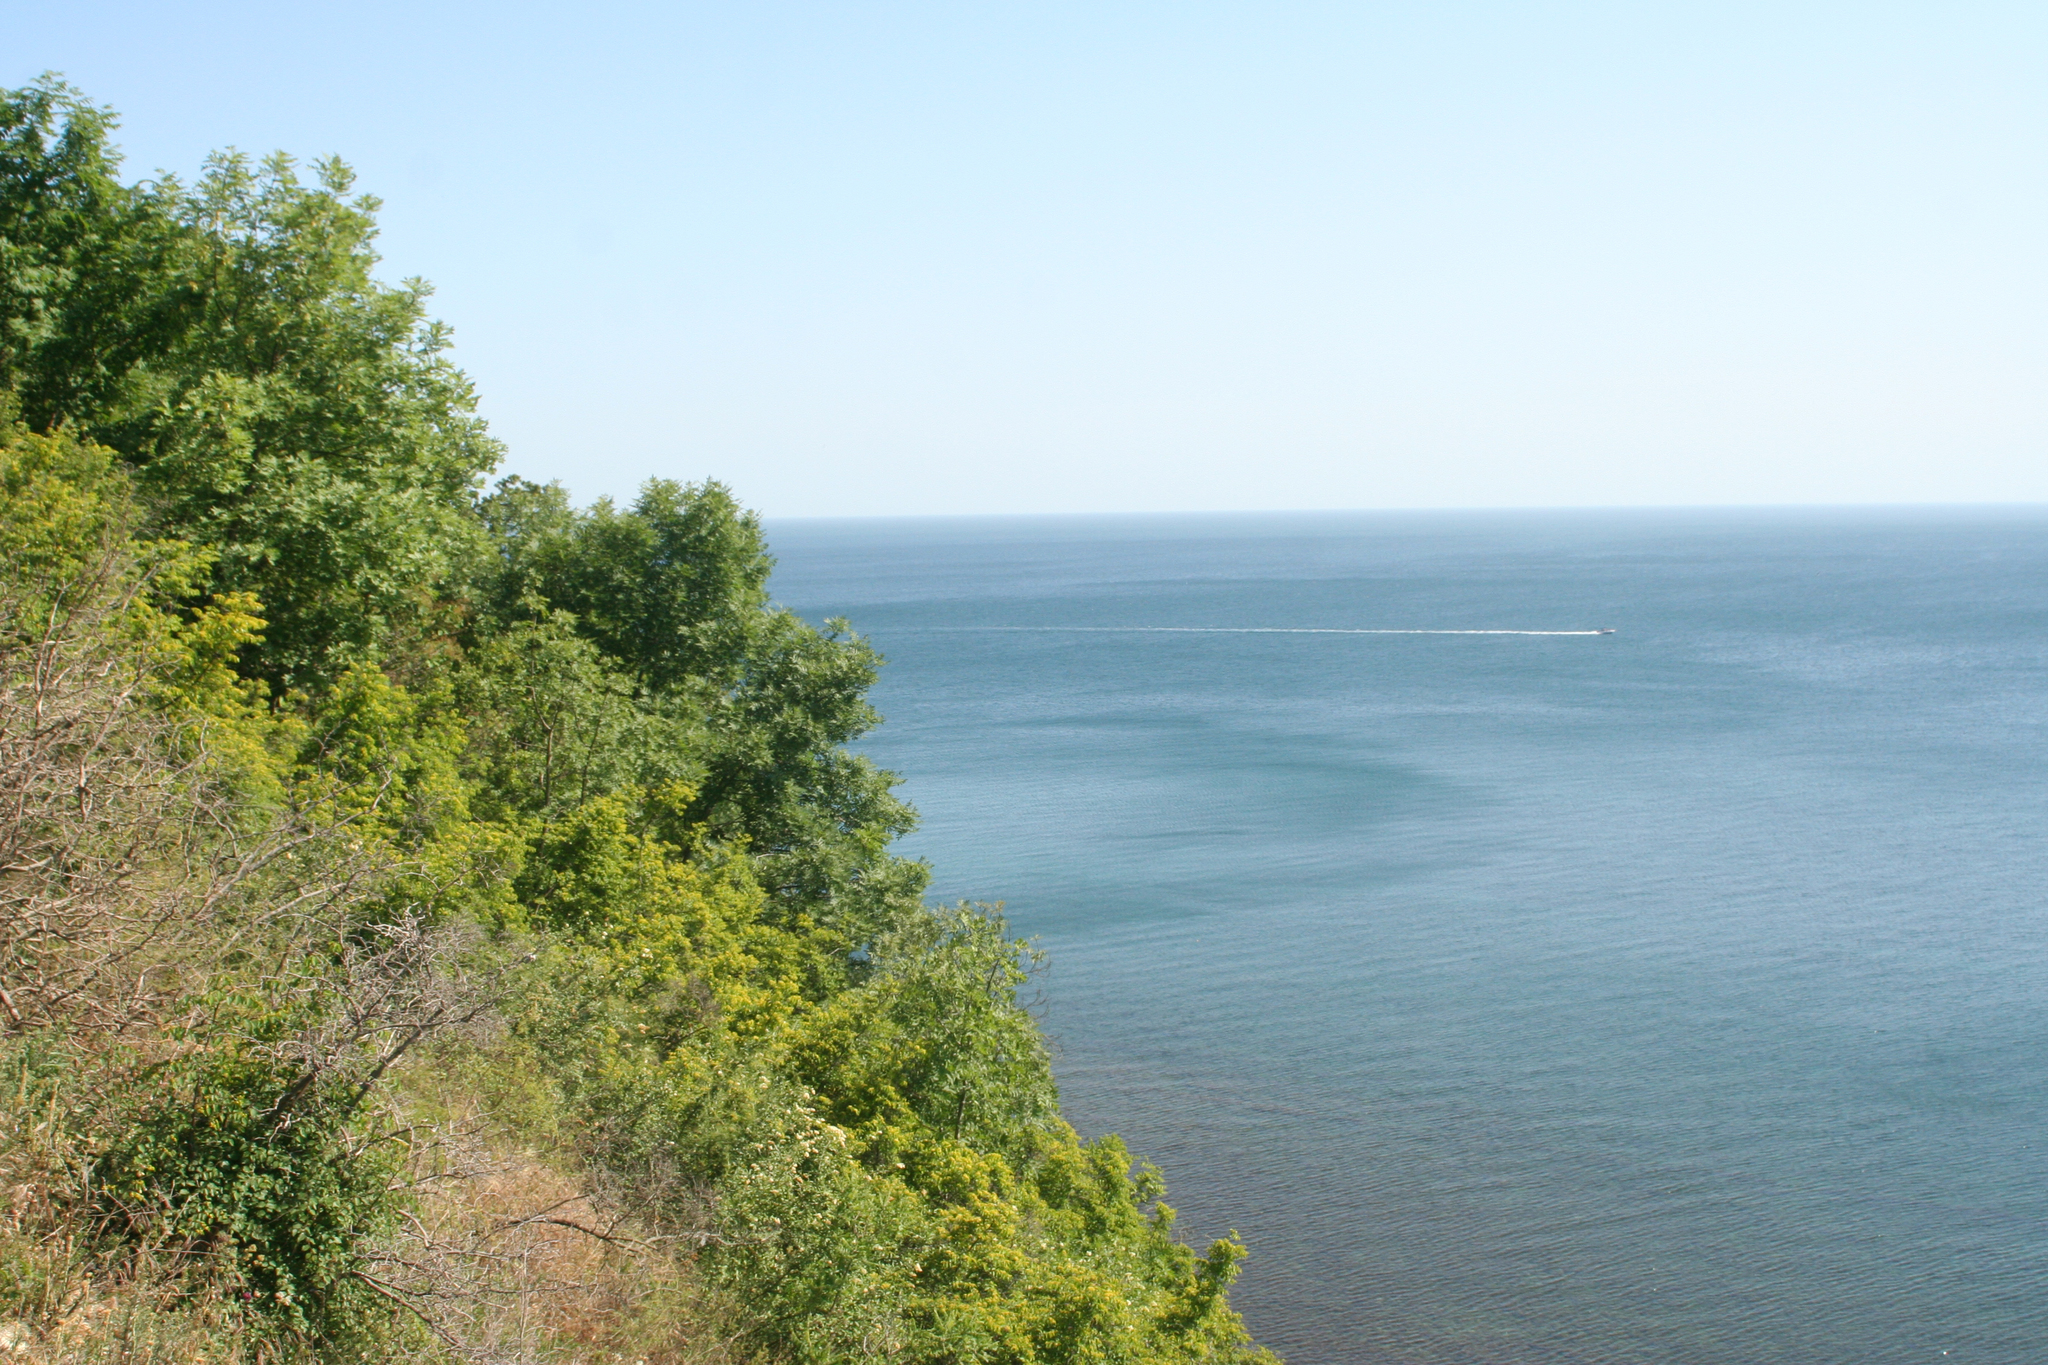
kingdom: Plantae
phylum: Tracheophyta
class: Magnoliopsida
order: Rosales
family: Rhamnaceae
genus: Paliurus
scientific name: Paliurus spina-christi
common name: Jeruselem thorn
